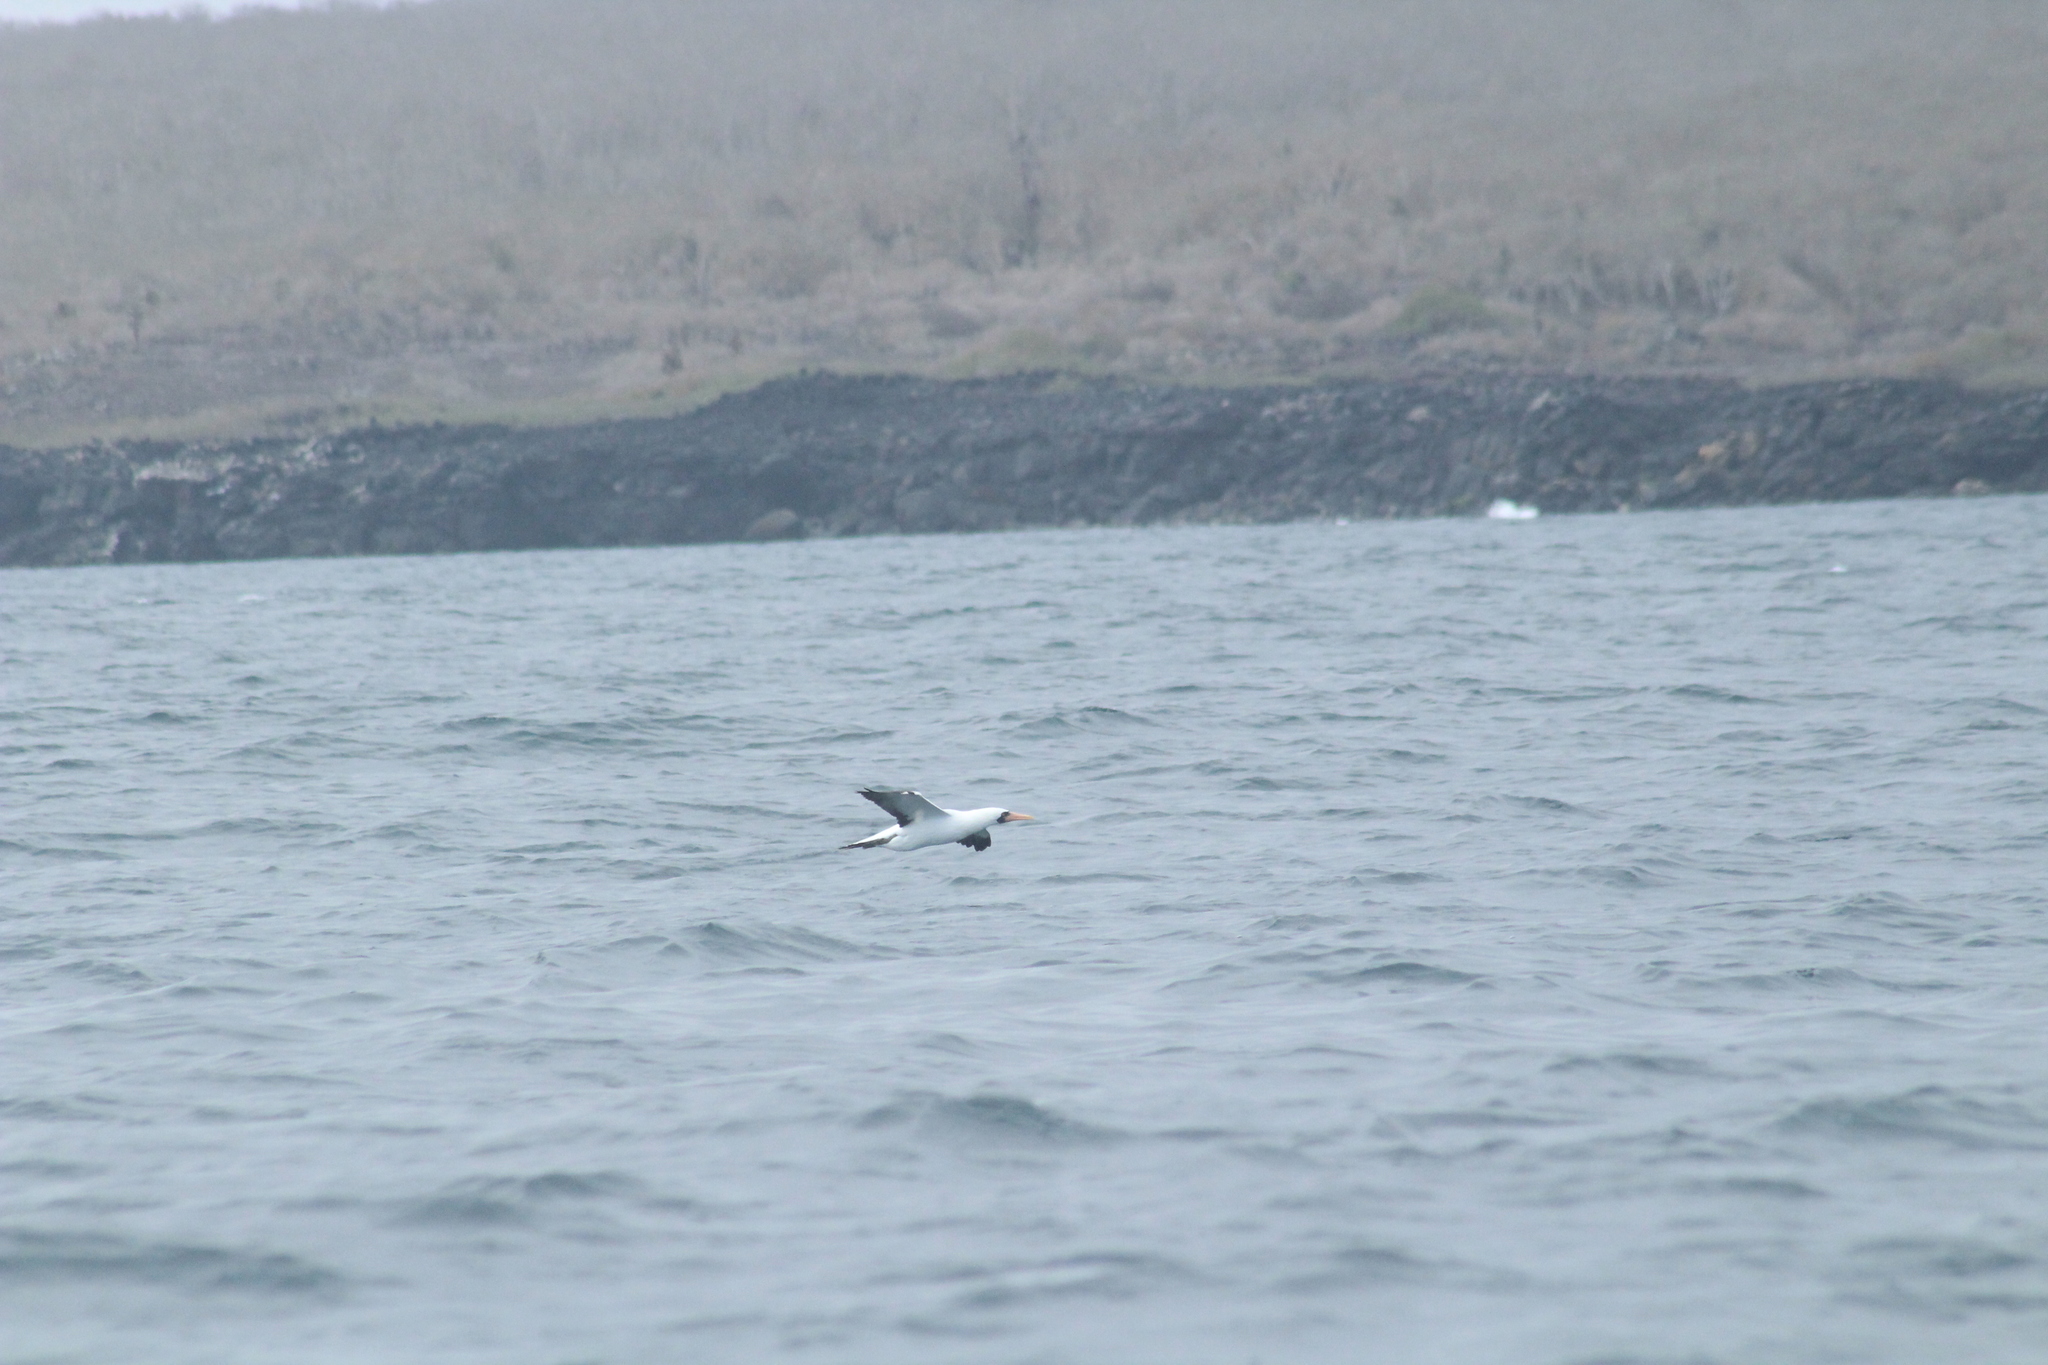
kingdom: Animalia
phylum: Chordata
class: Aves
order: Suliformes
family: Sulidae
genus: Sula
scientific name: Sula granti
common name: Nazca booby
